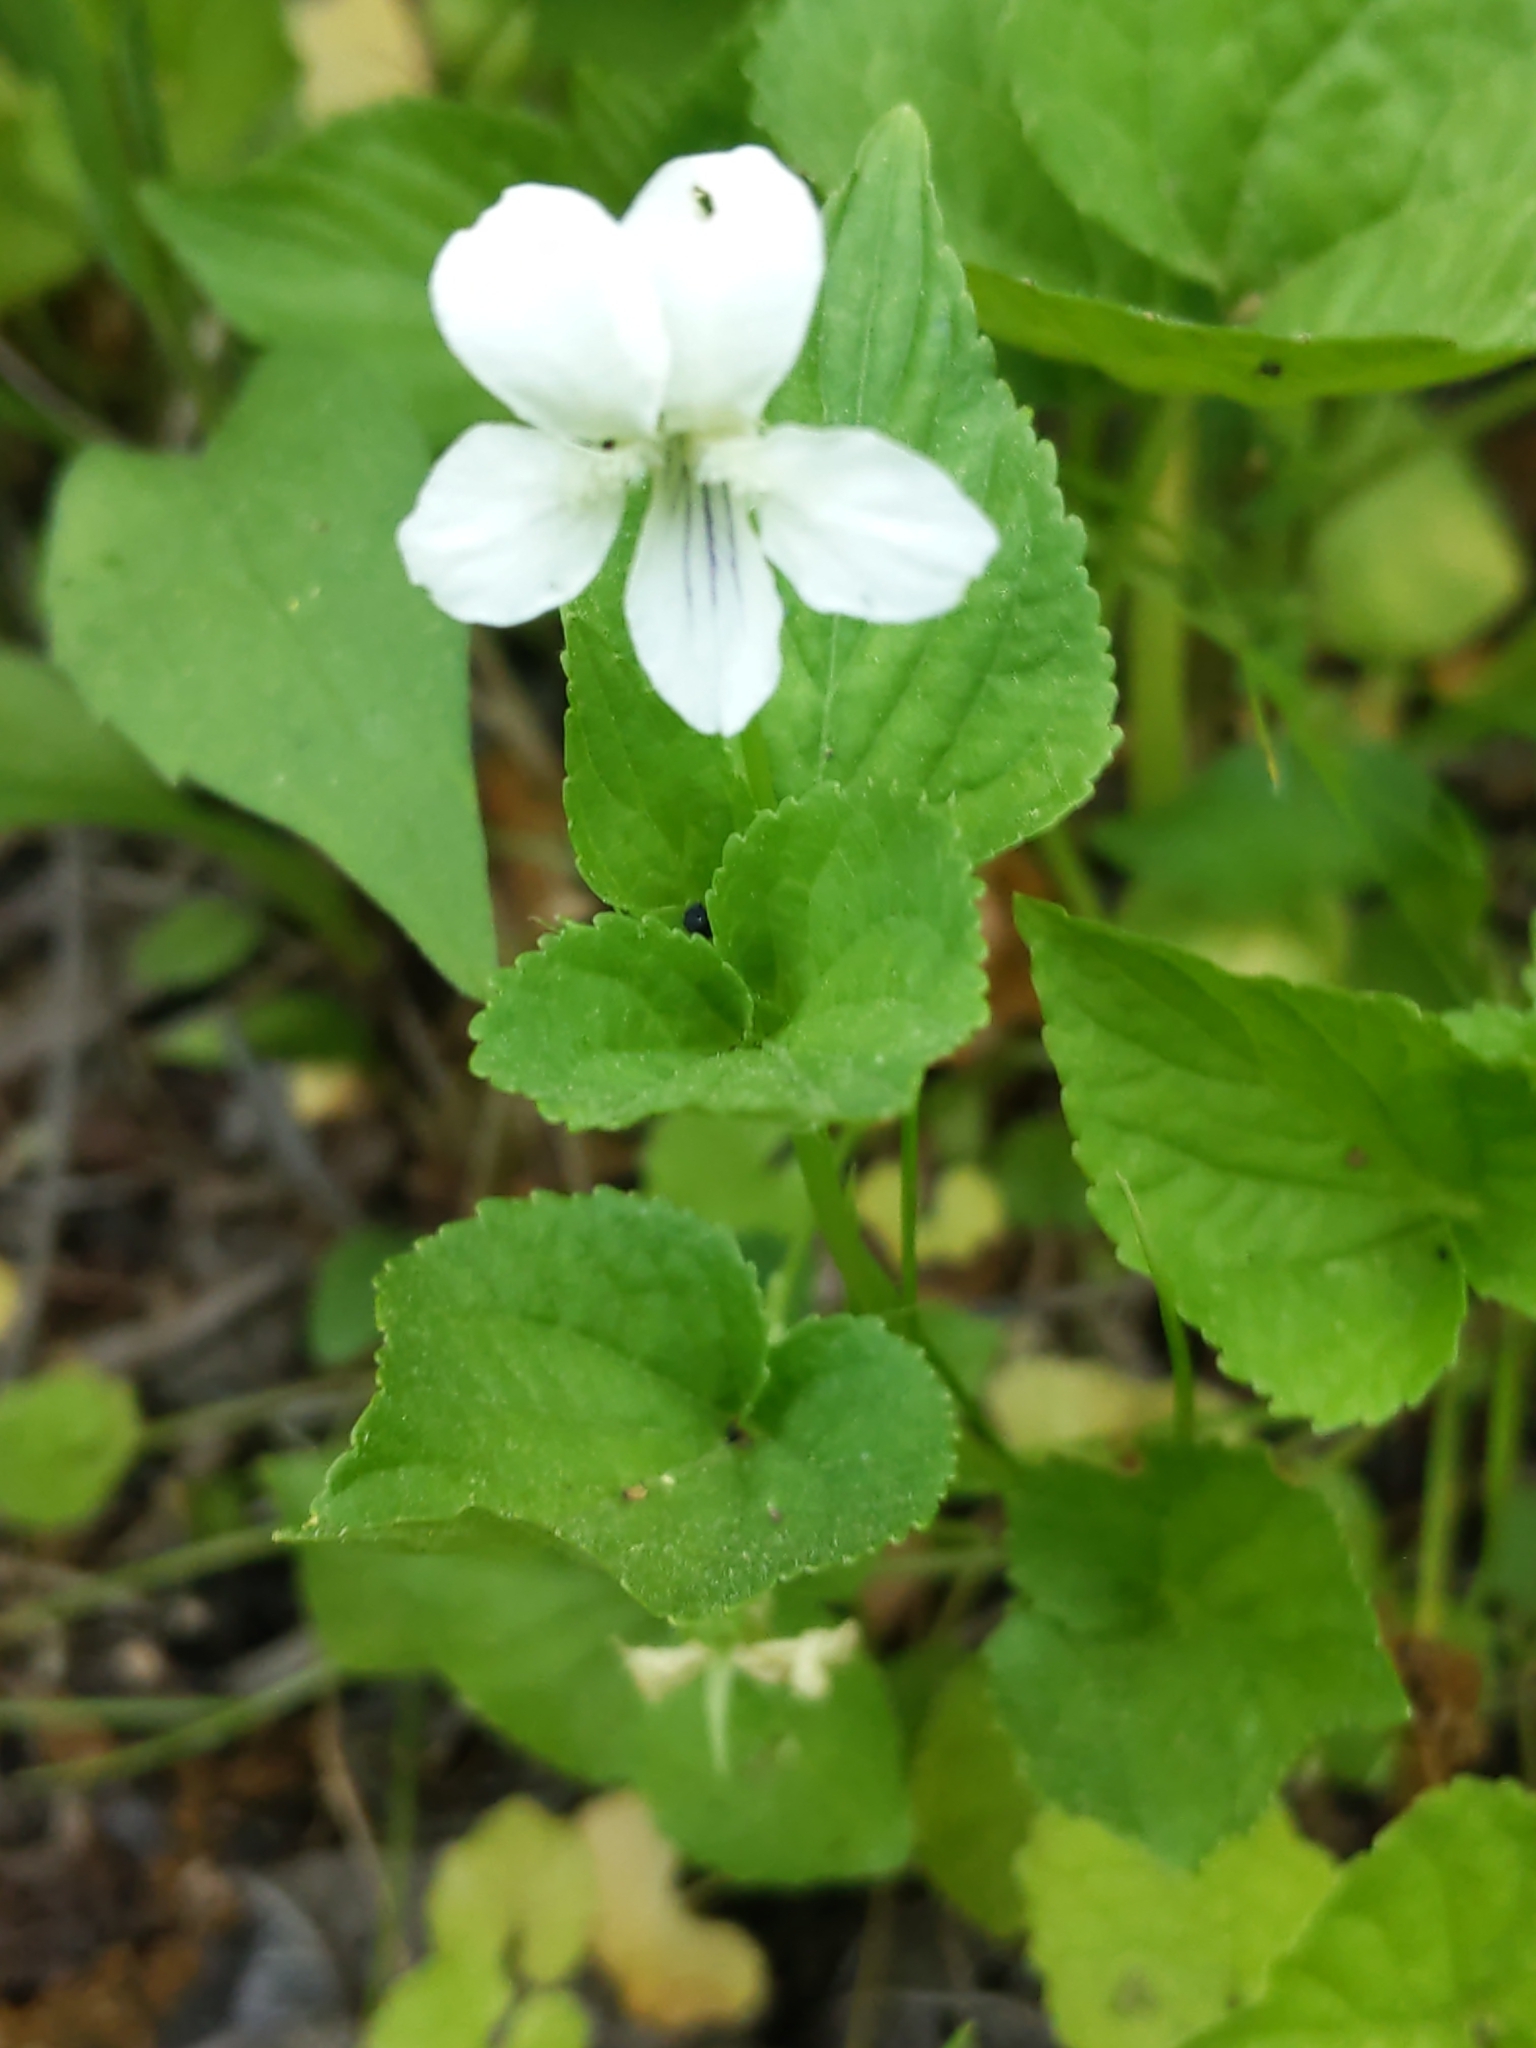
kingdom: Plantae
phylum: Tracheophyta
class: Magnoliopsida
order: Malpighiales
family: Violaceae
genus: Viola
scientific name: Viola striata
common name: Cream violet
